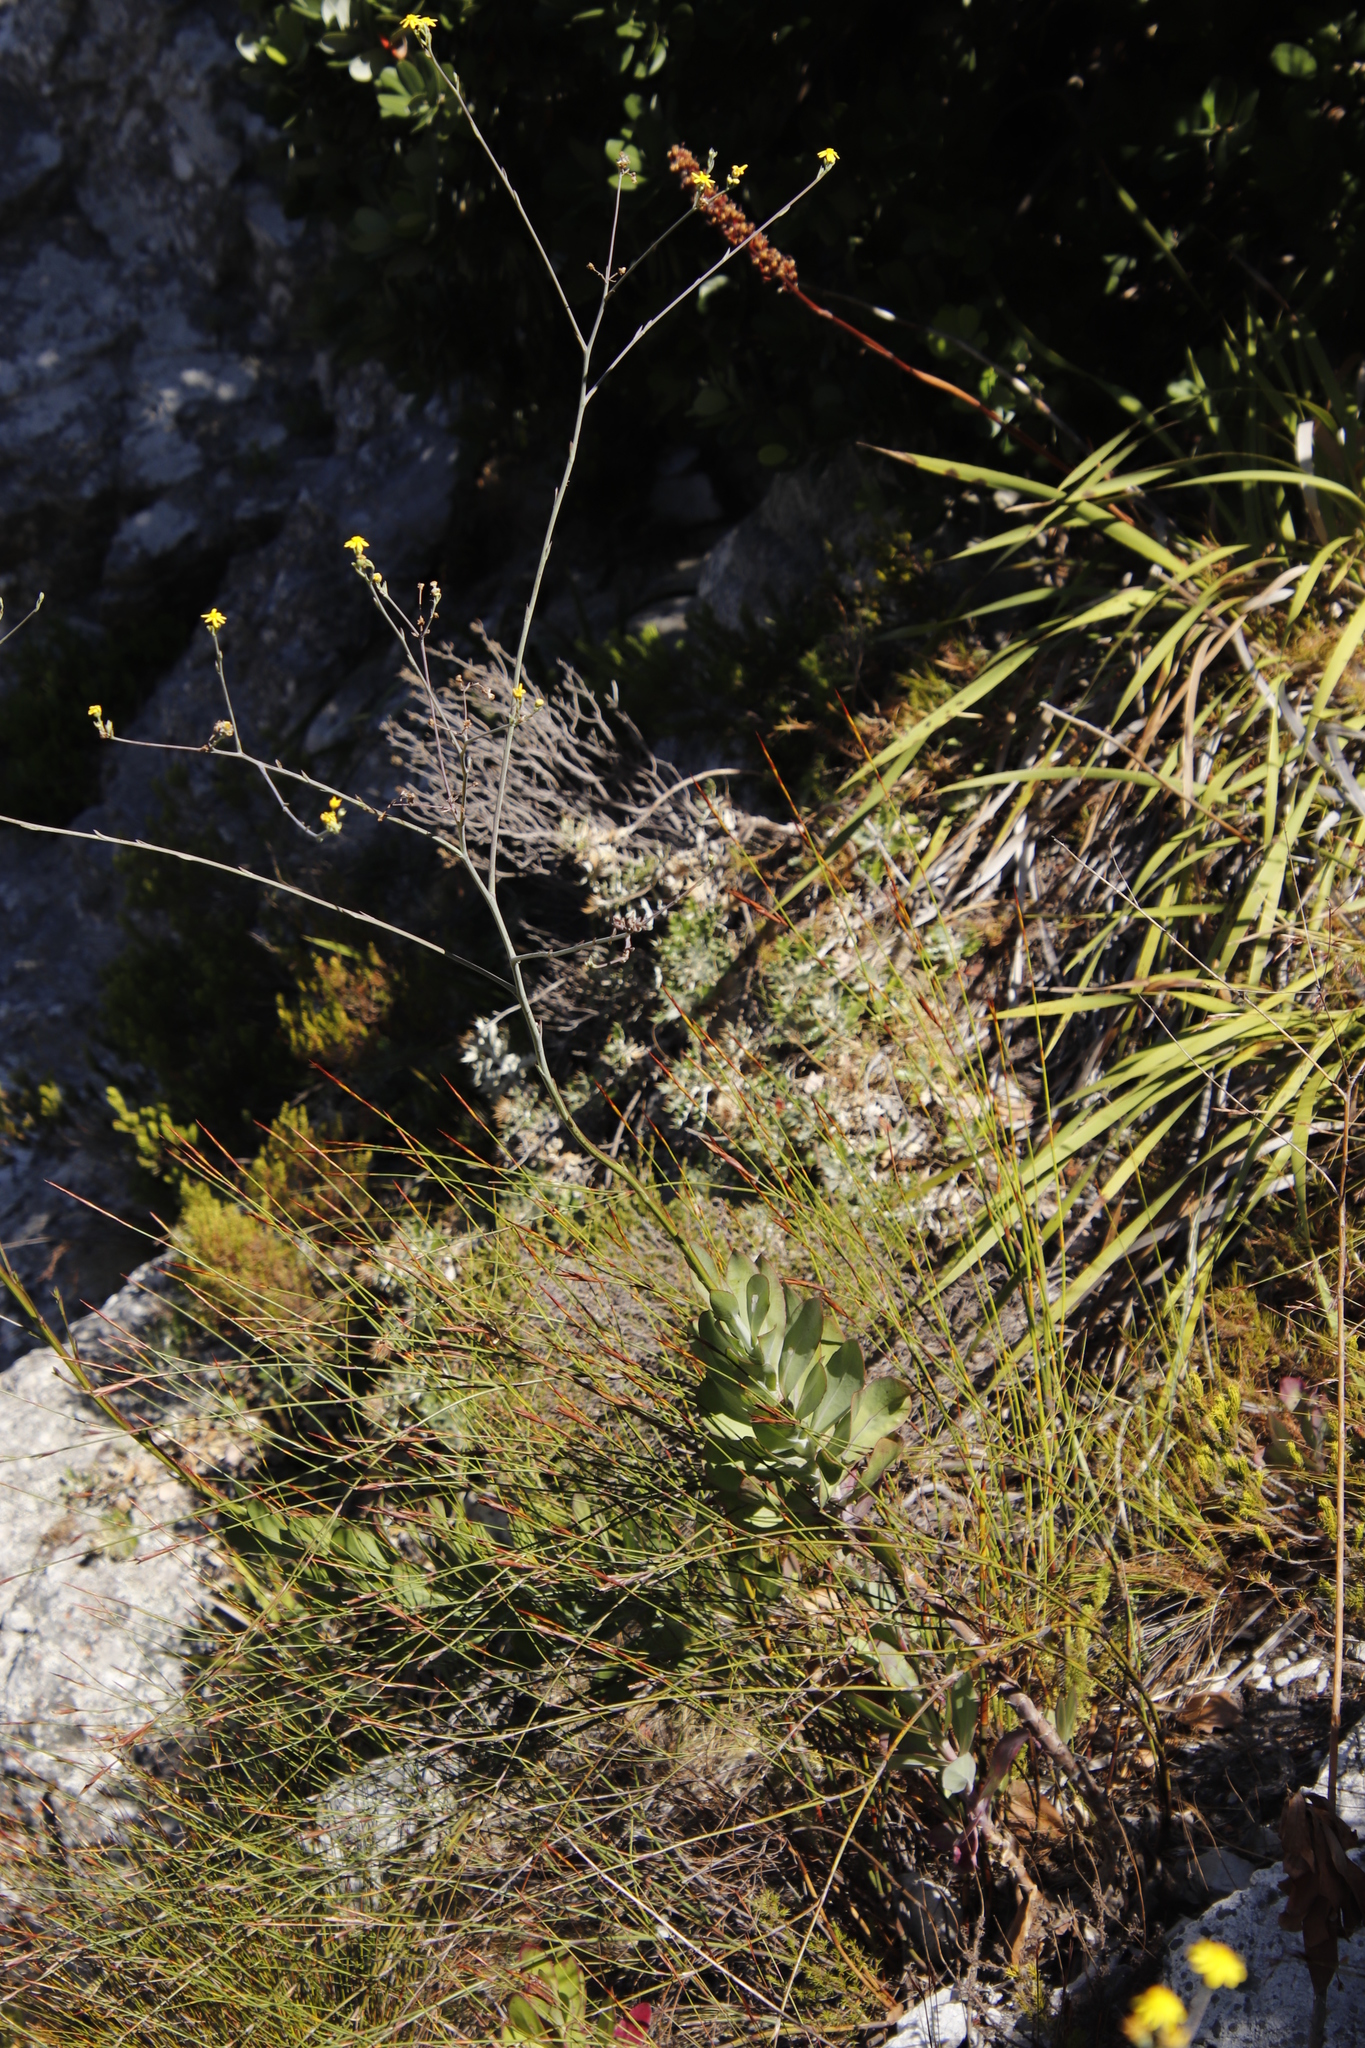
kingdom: Plantae
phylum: Tracheophyta
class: Magnoliopsida
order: Asterales
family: Asteraceae
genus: Othonna
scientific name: Othonna quinquedentata
